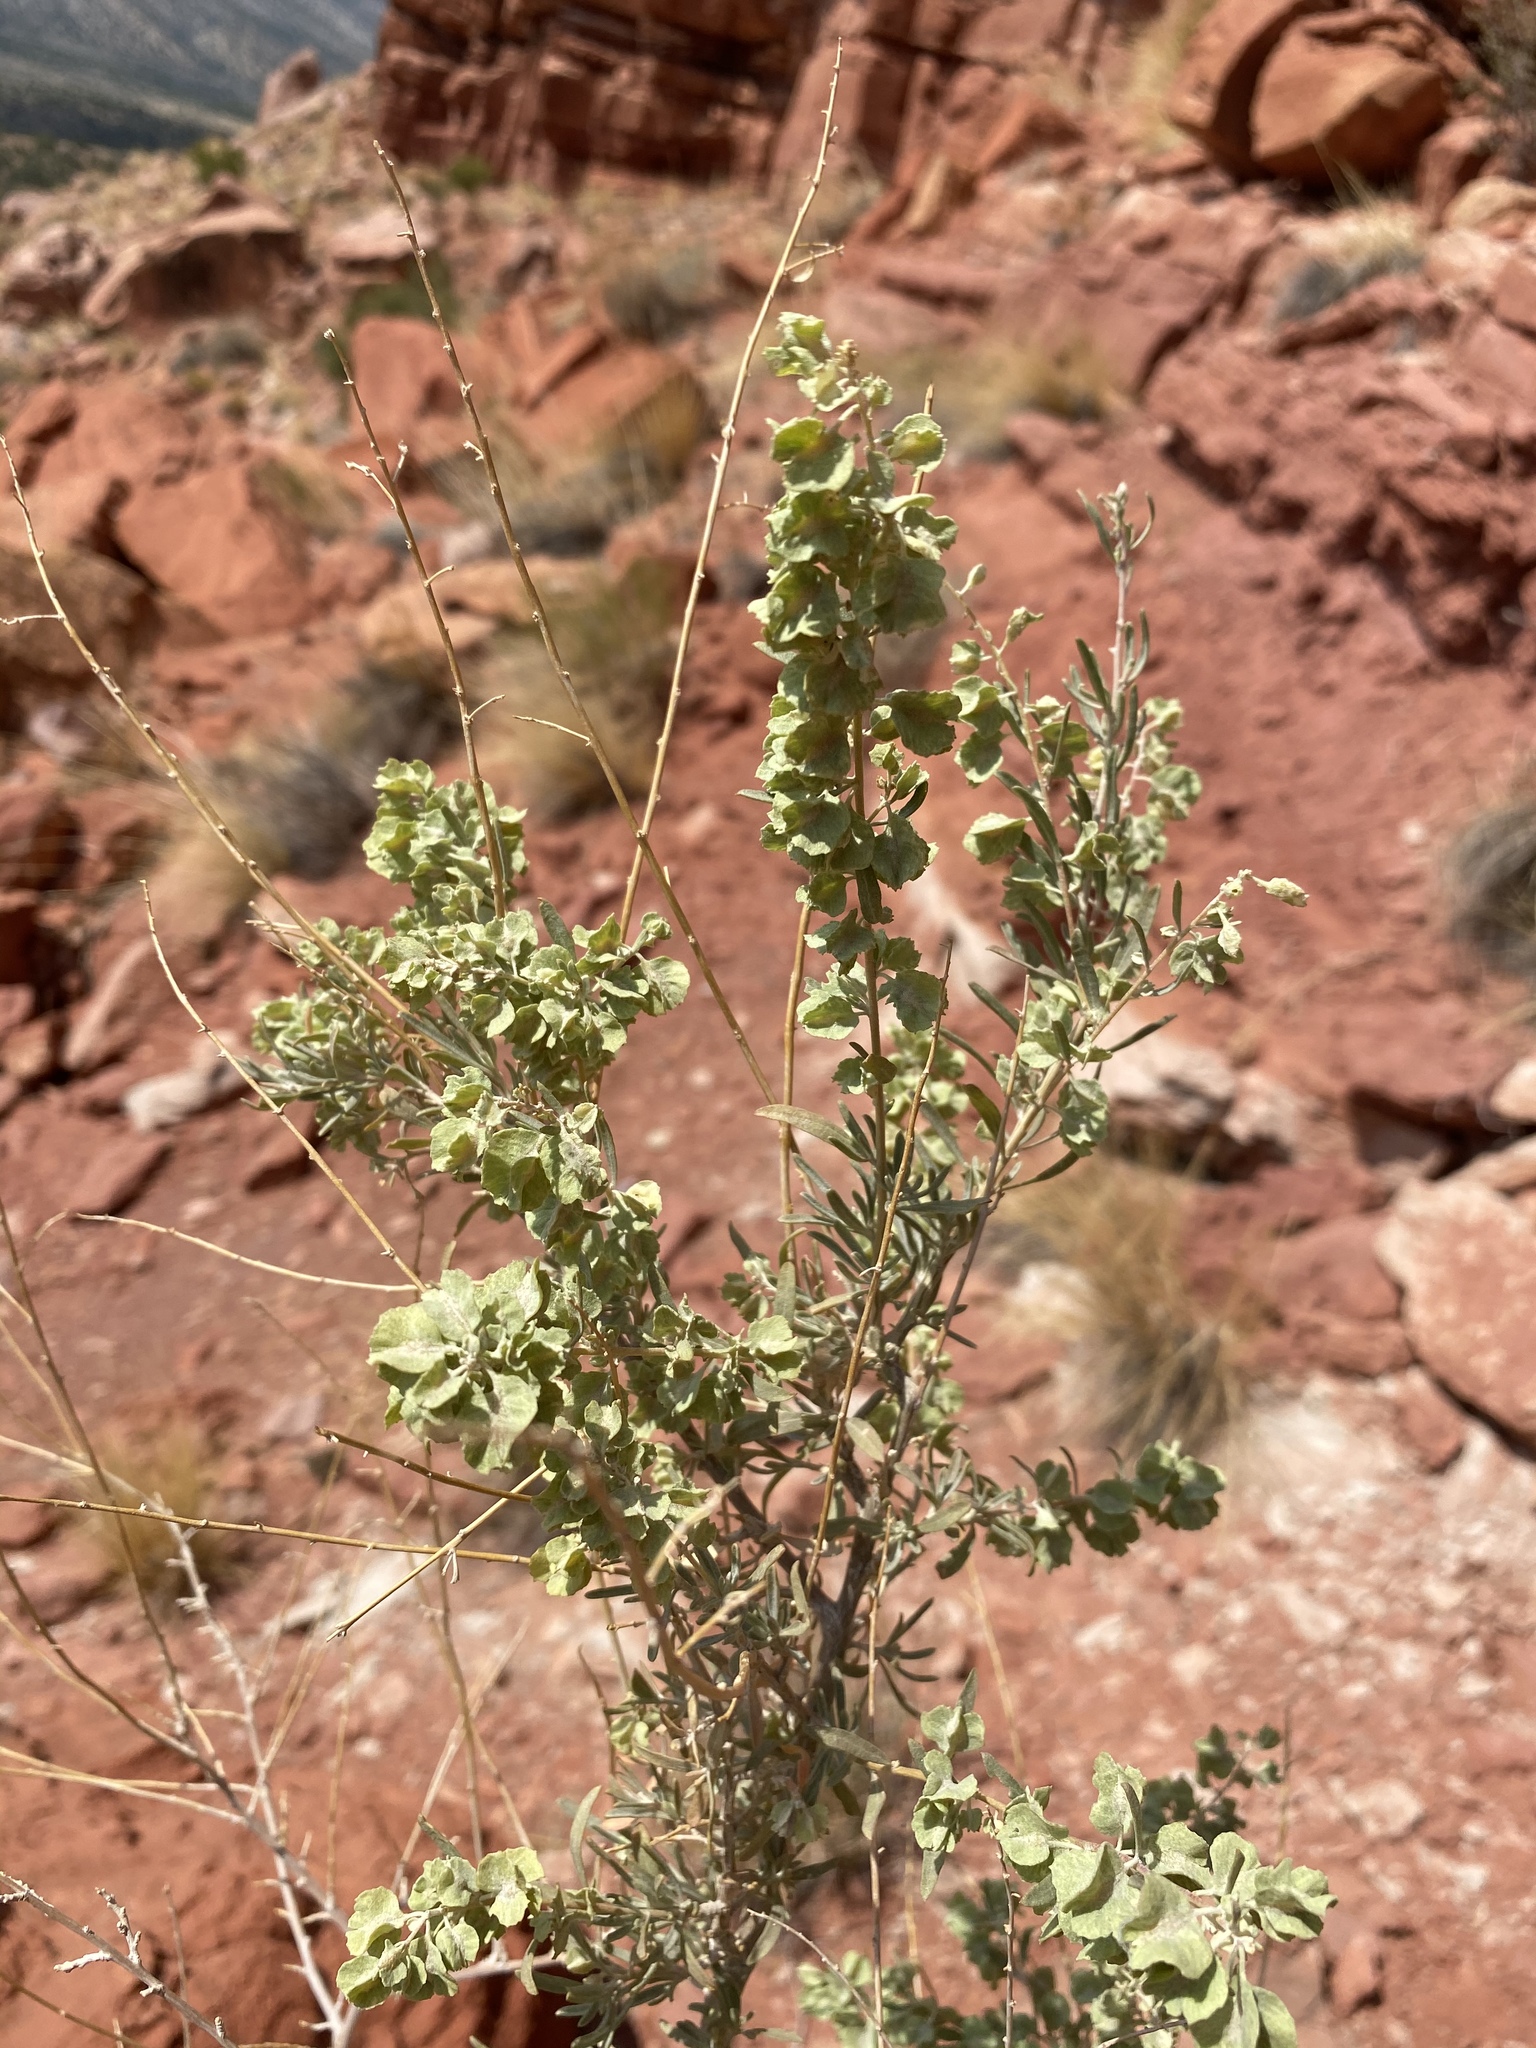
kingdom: Plantae
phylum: Tracheophyta
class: Magnoliopsida
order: Caryophyllales
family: Amaranthaceae
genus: Atriplex
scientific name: Atriplex canescens
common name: Four-wing saltbush
